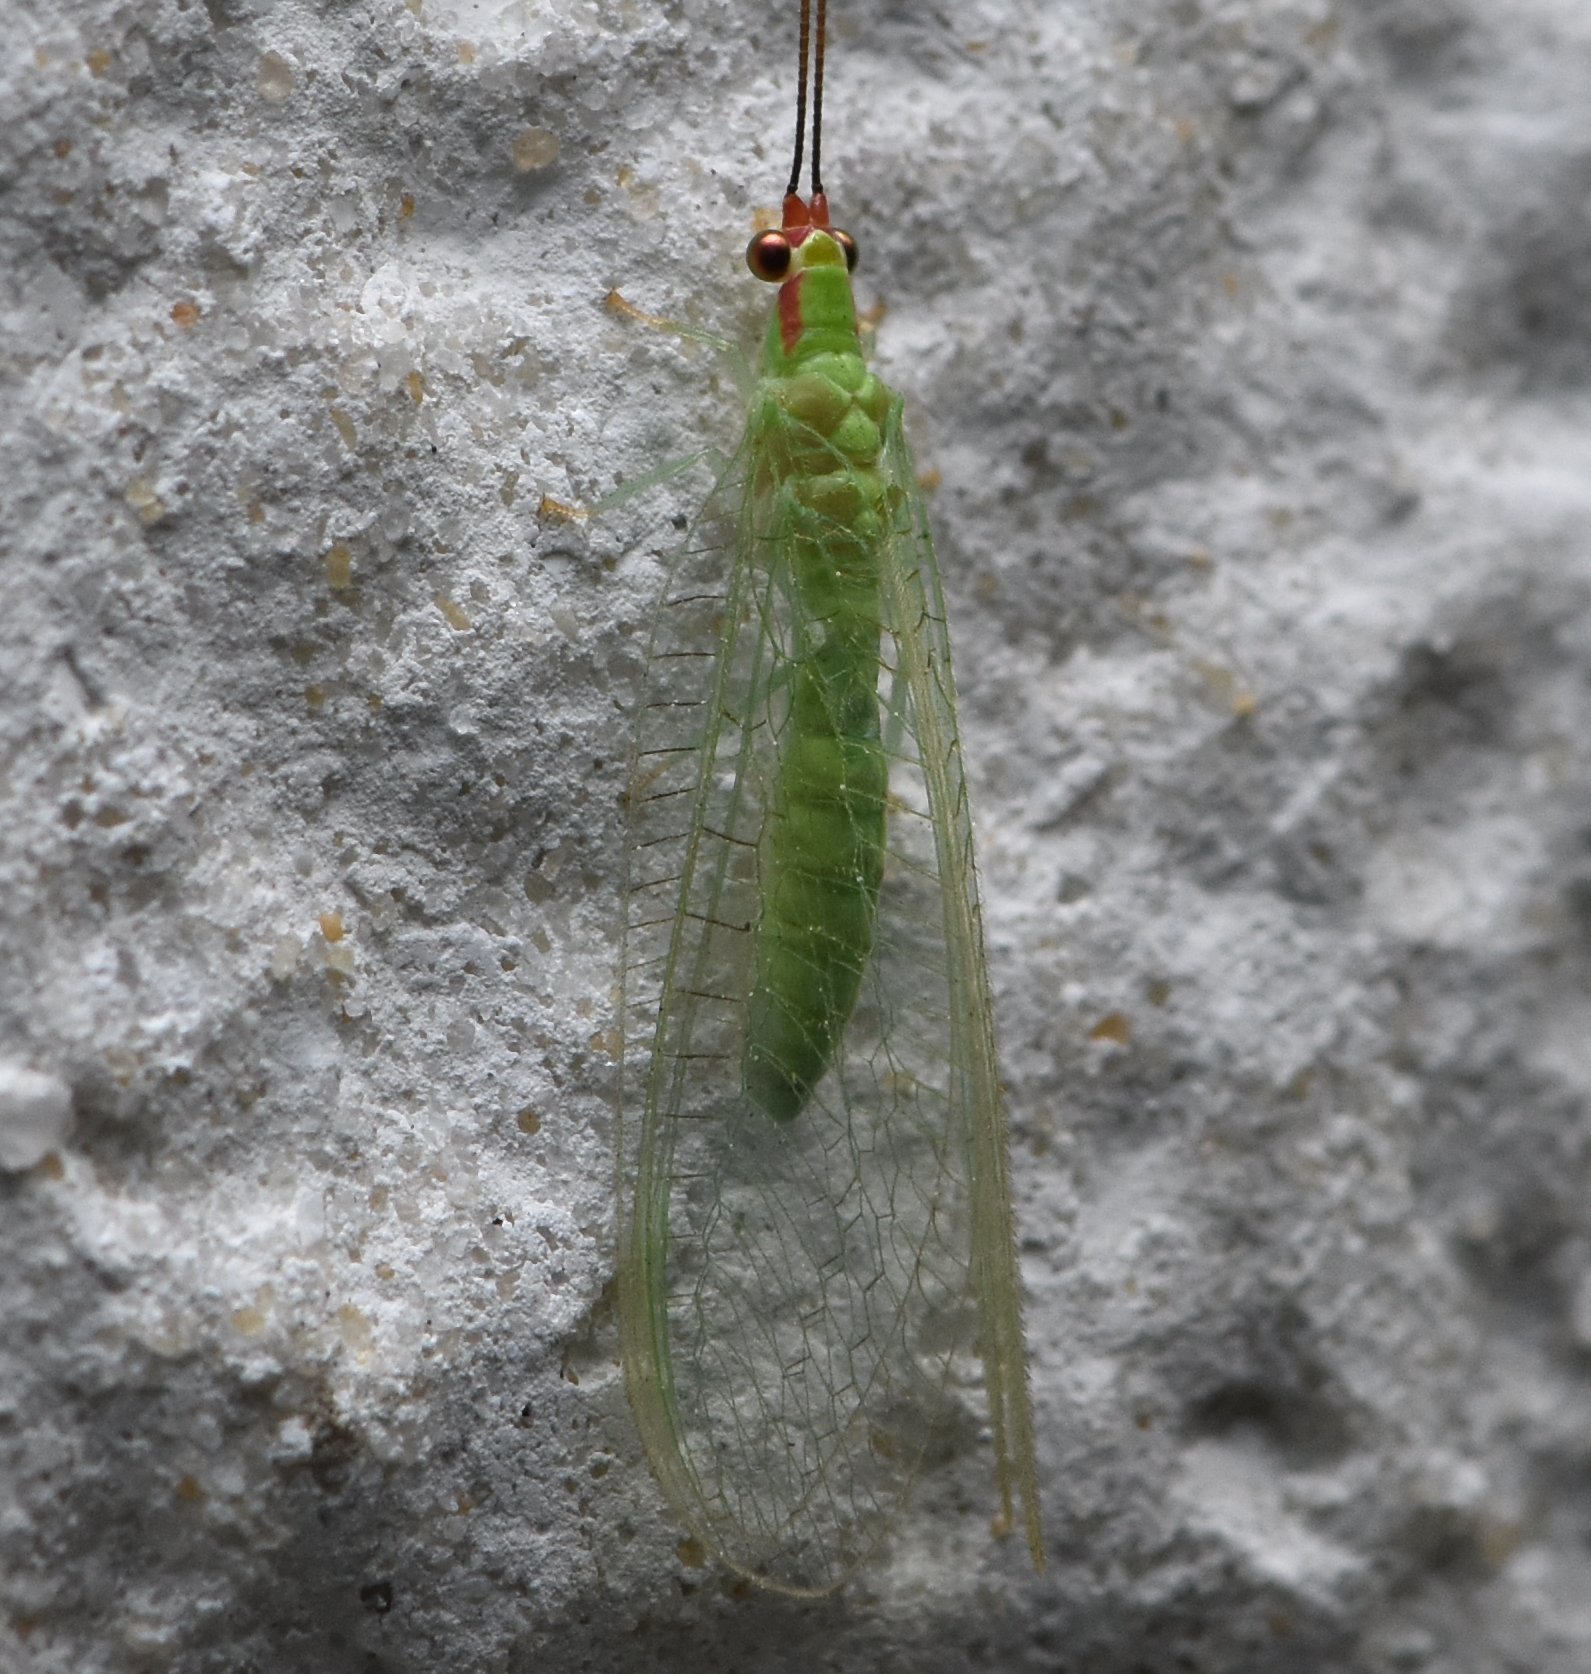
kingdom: Animalia
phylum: Arthropoda
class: Insecta
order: Neuroptera
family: Chrysopidae
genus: Ceraeochrysa
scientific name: Ceraeochrysa smithi
